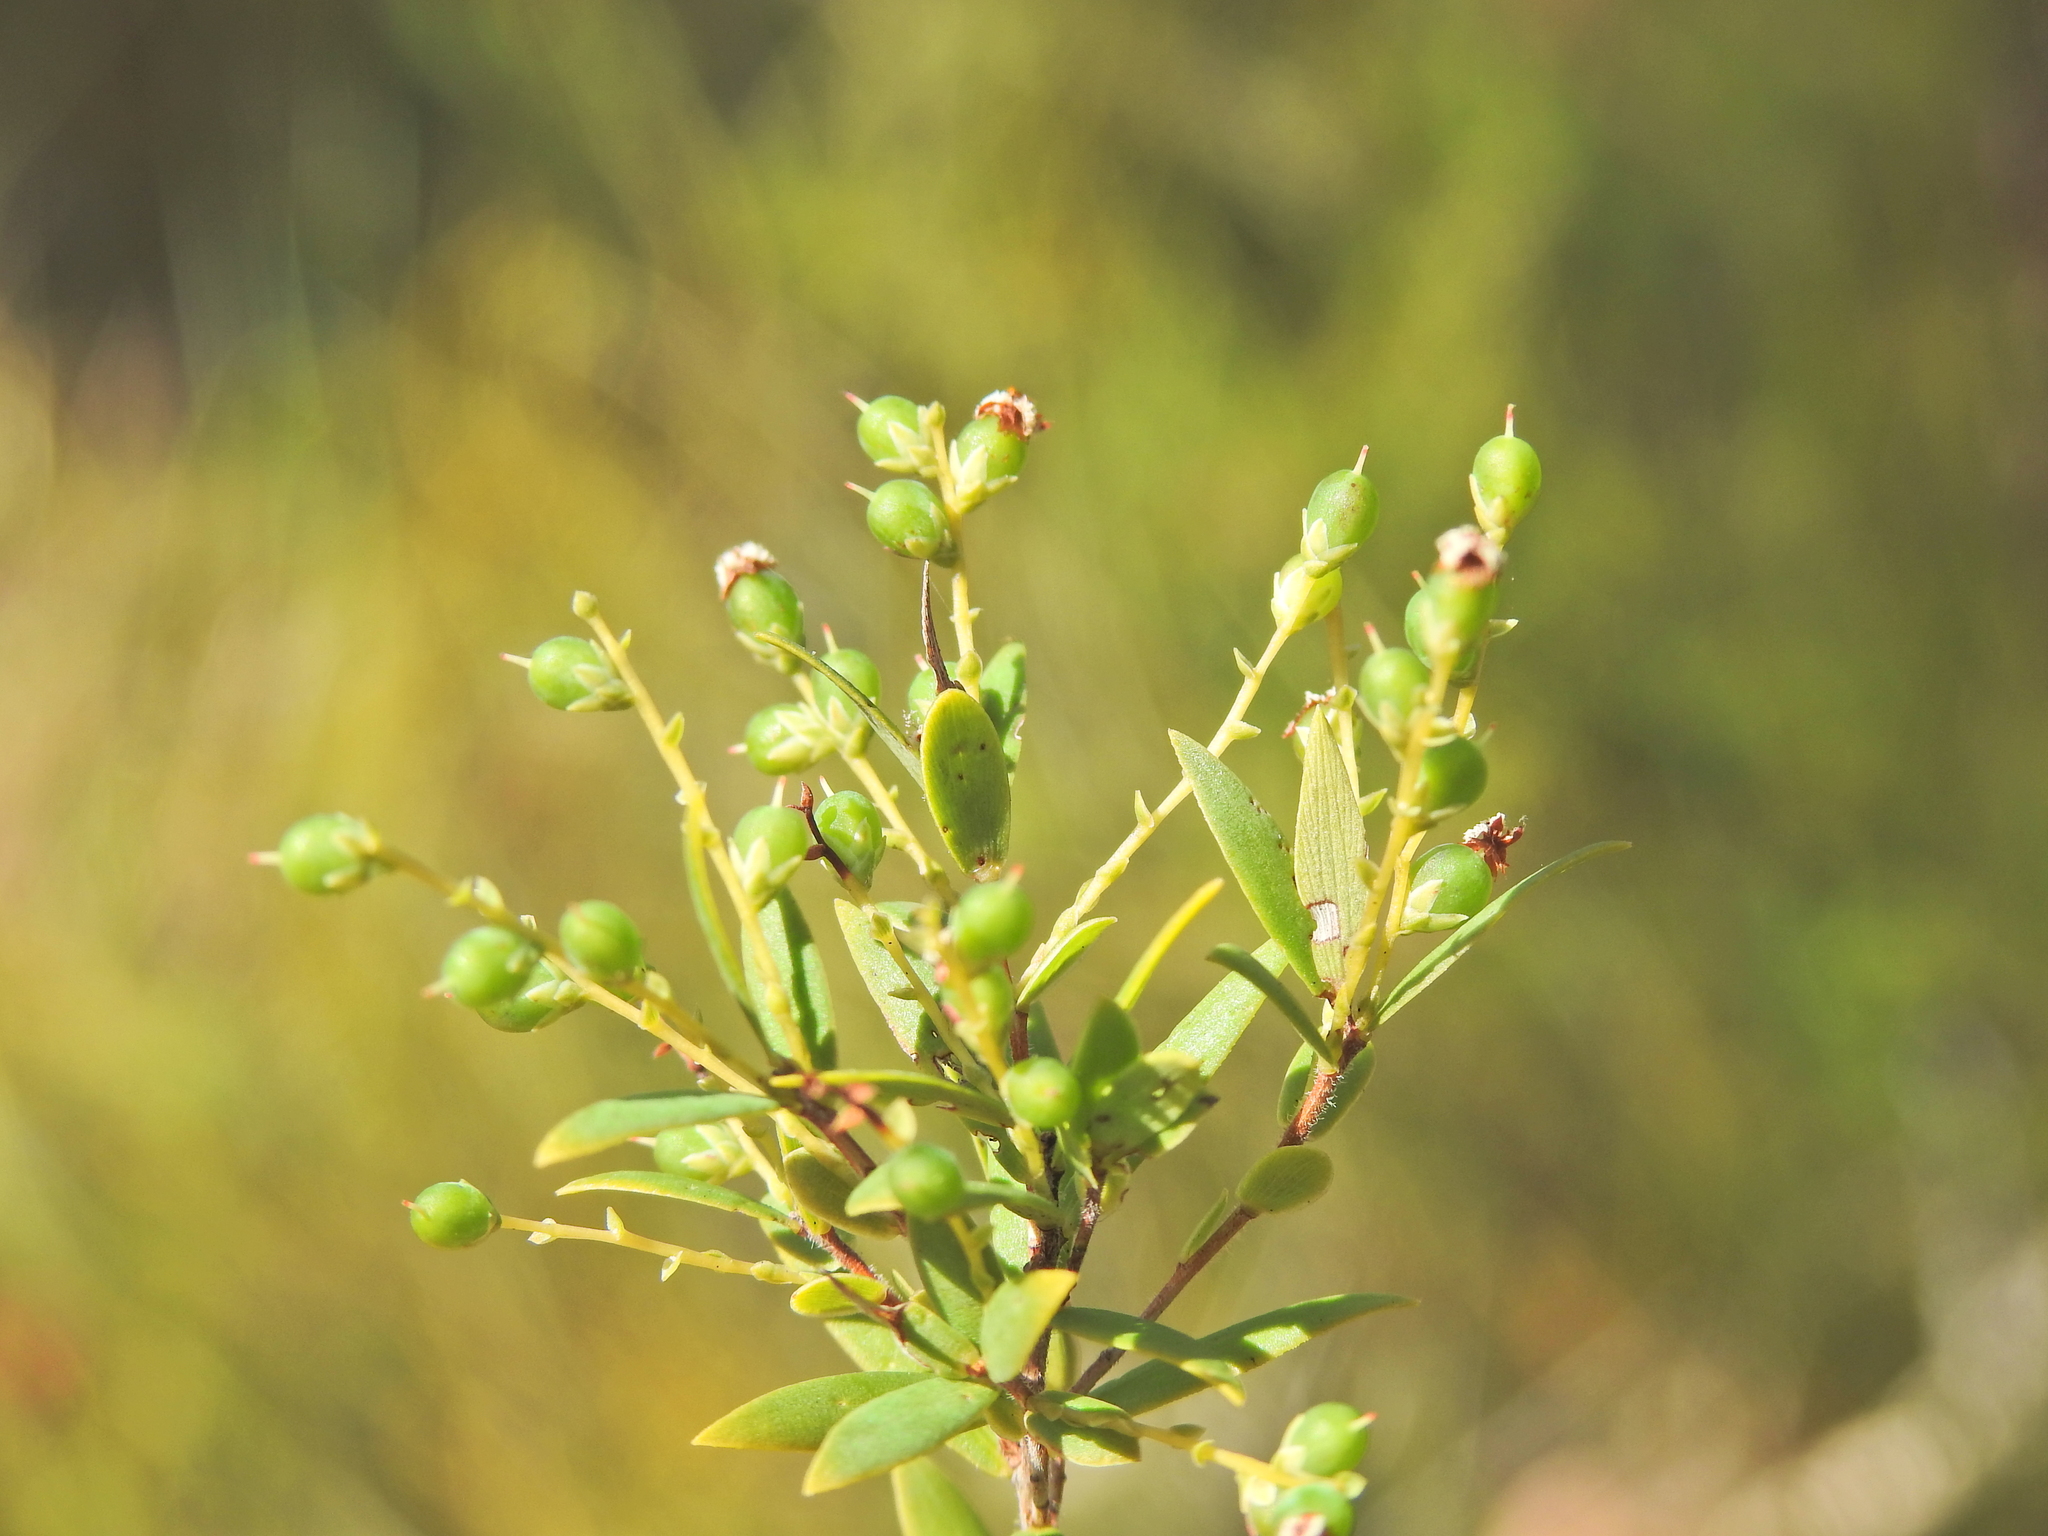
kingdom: Plantae
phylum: Tracheophyta
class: Magnoliopsida
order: Ericales
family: Ericaceae
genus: Leucopogon
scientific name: Leucopogon pimeleoides
